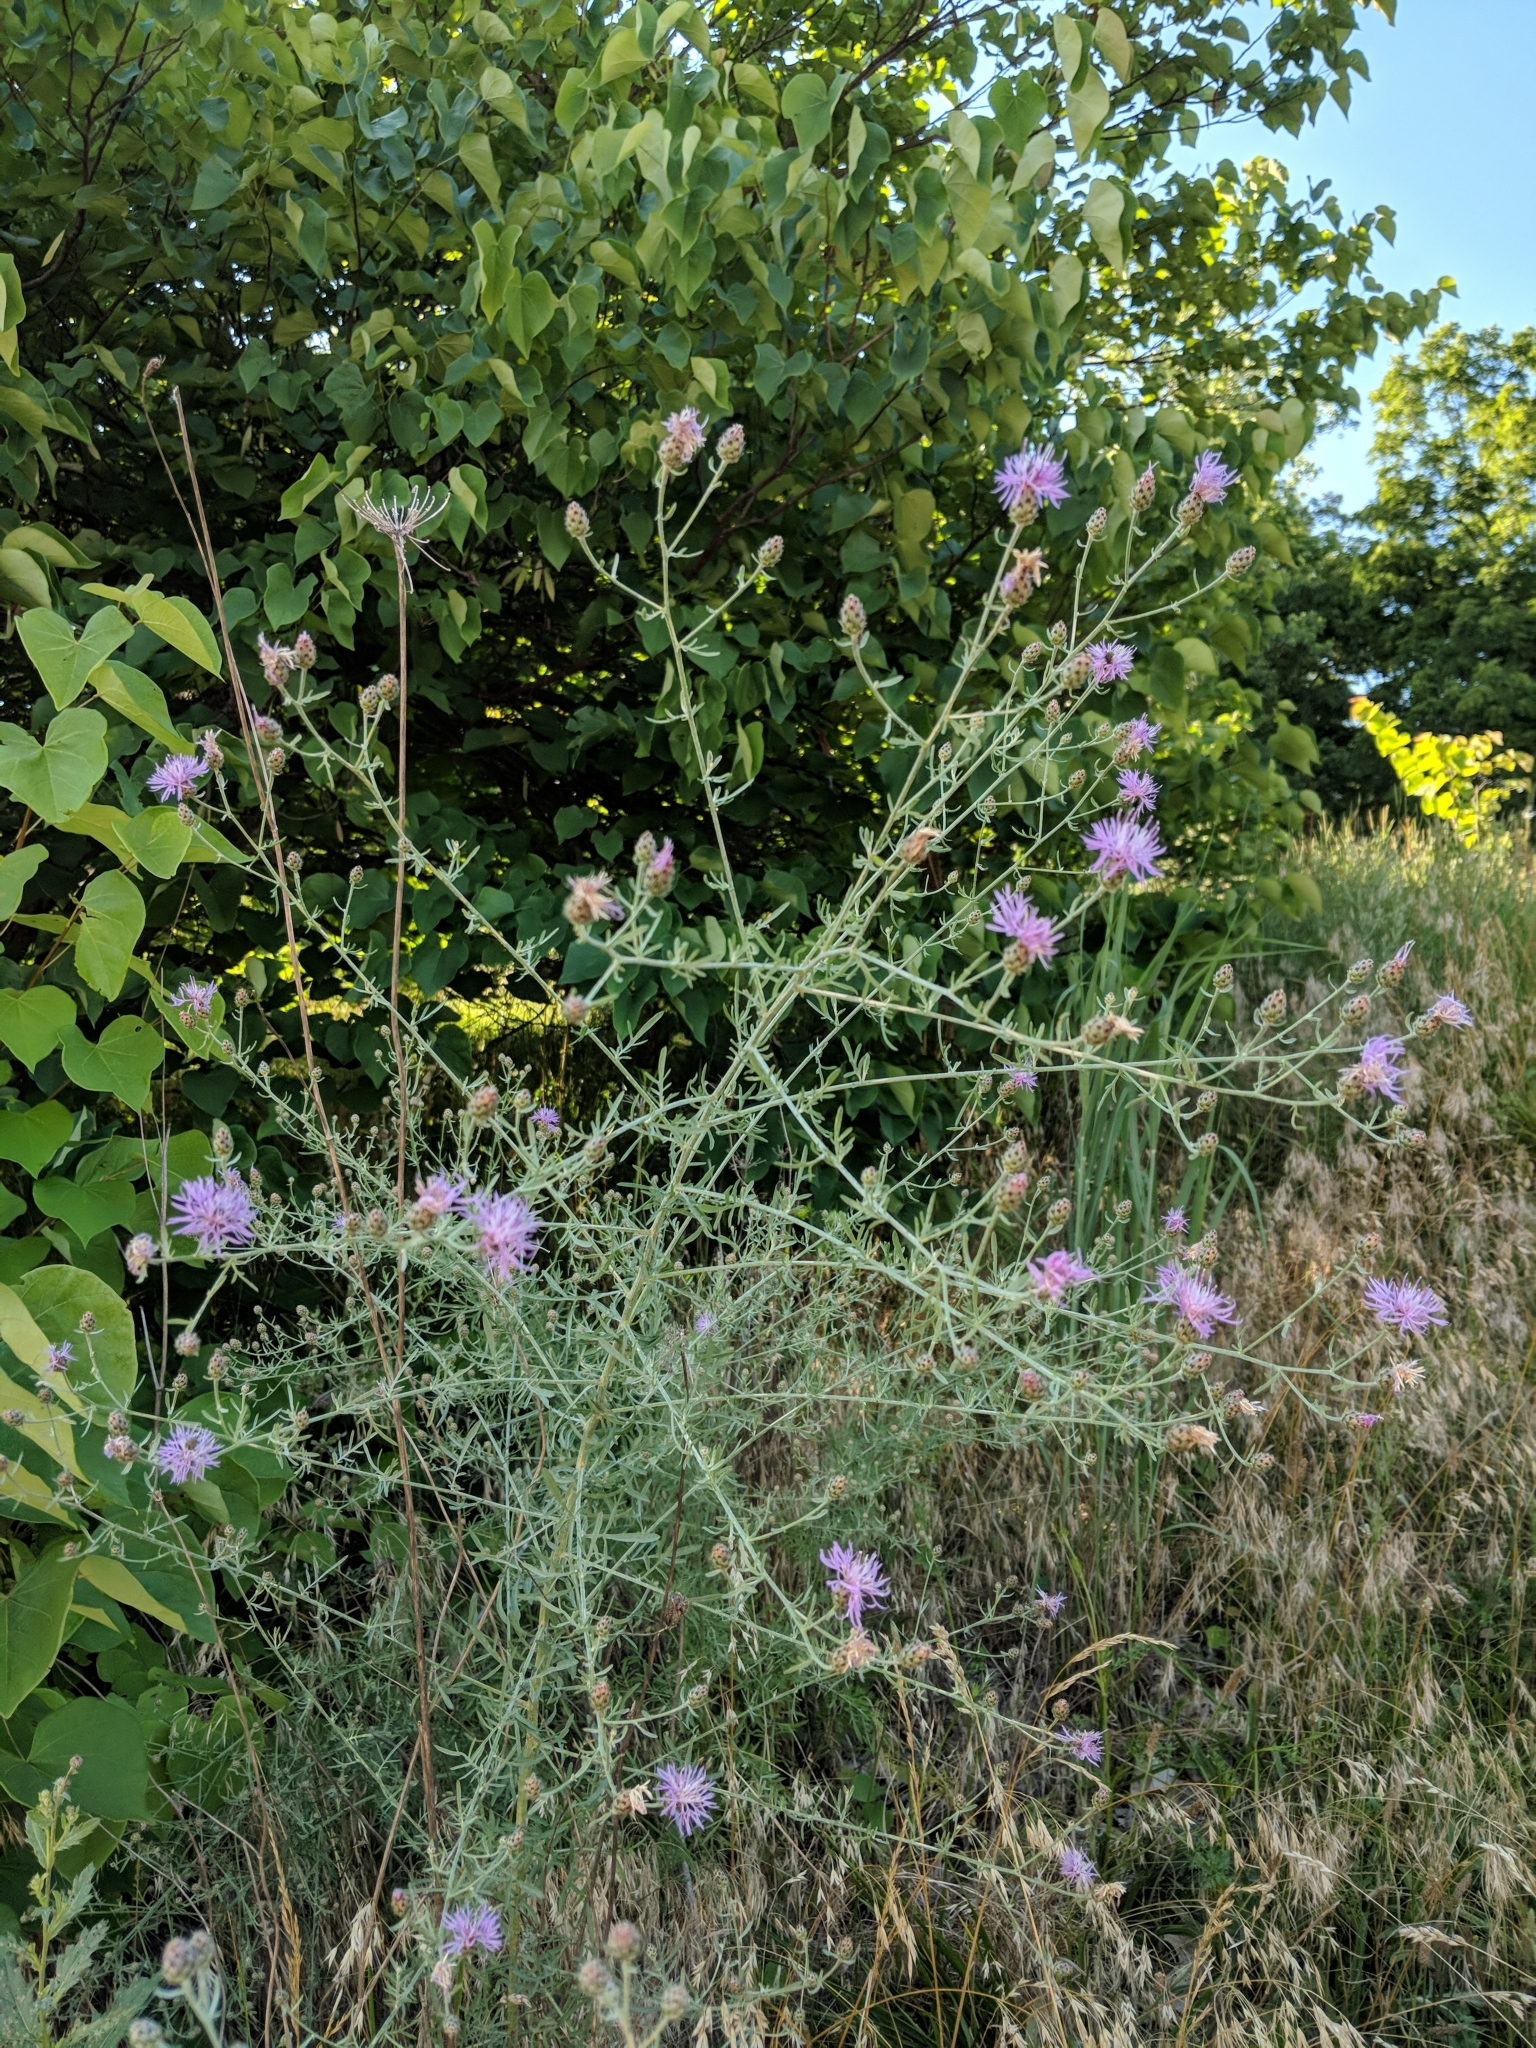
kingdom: Plantae
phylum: Tracheophyta
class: Magnoliopsida
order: Asterales
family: Asteraceae
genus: Centaurea
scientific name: Centaurea stoebe
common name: Spotted knapweed
